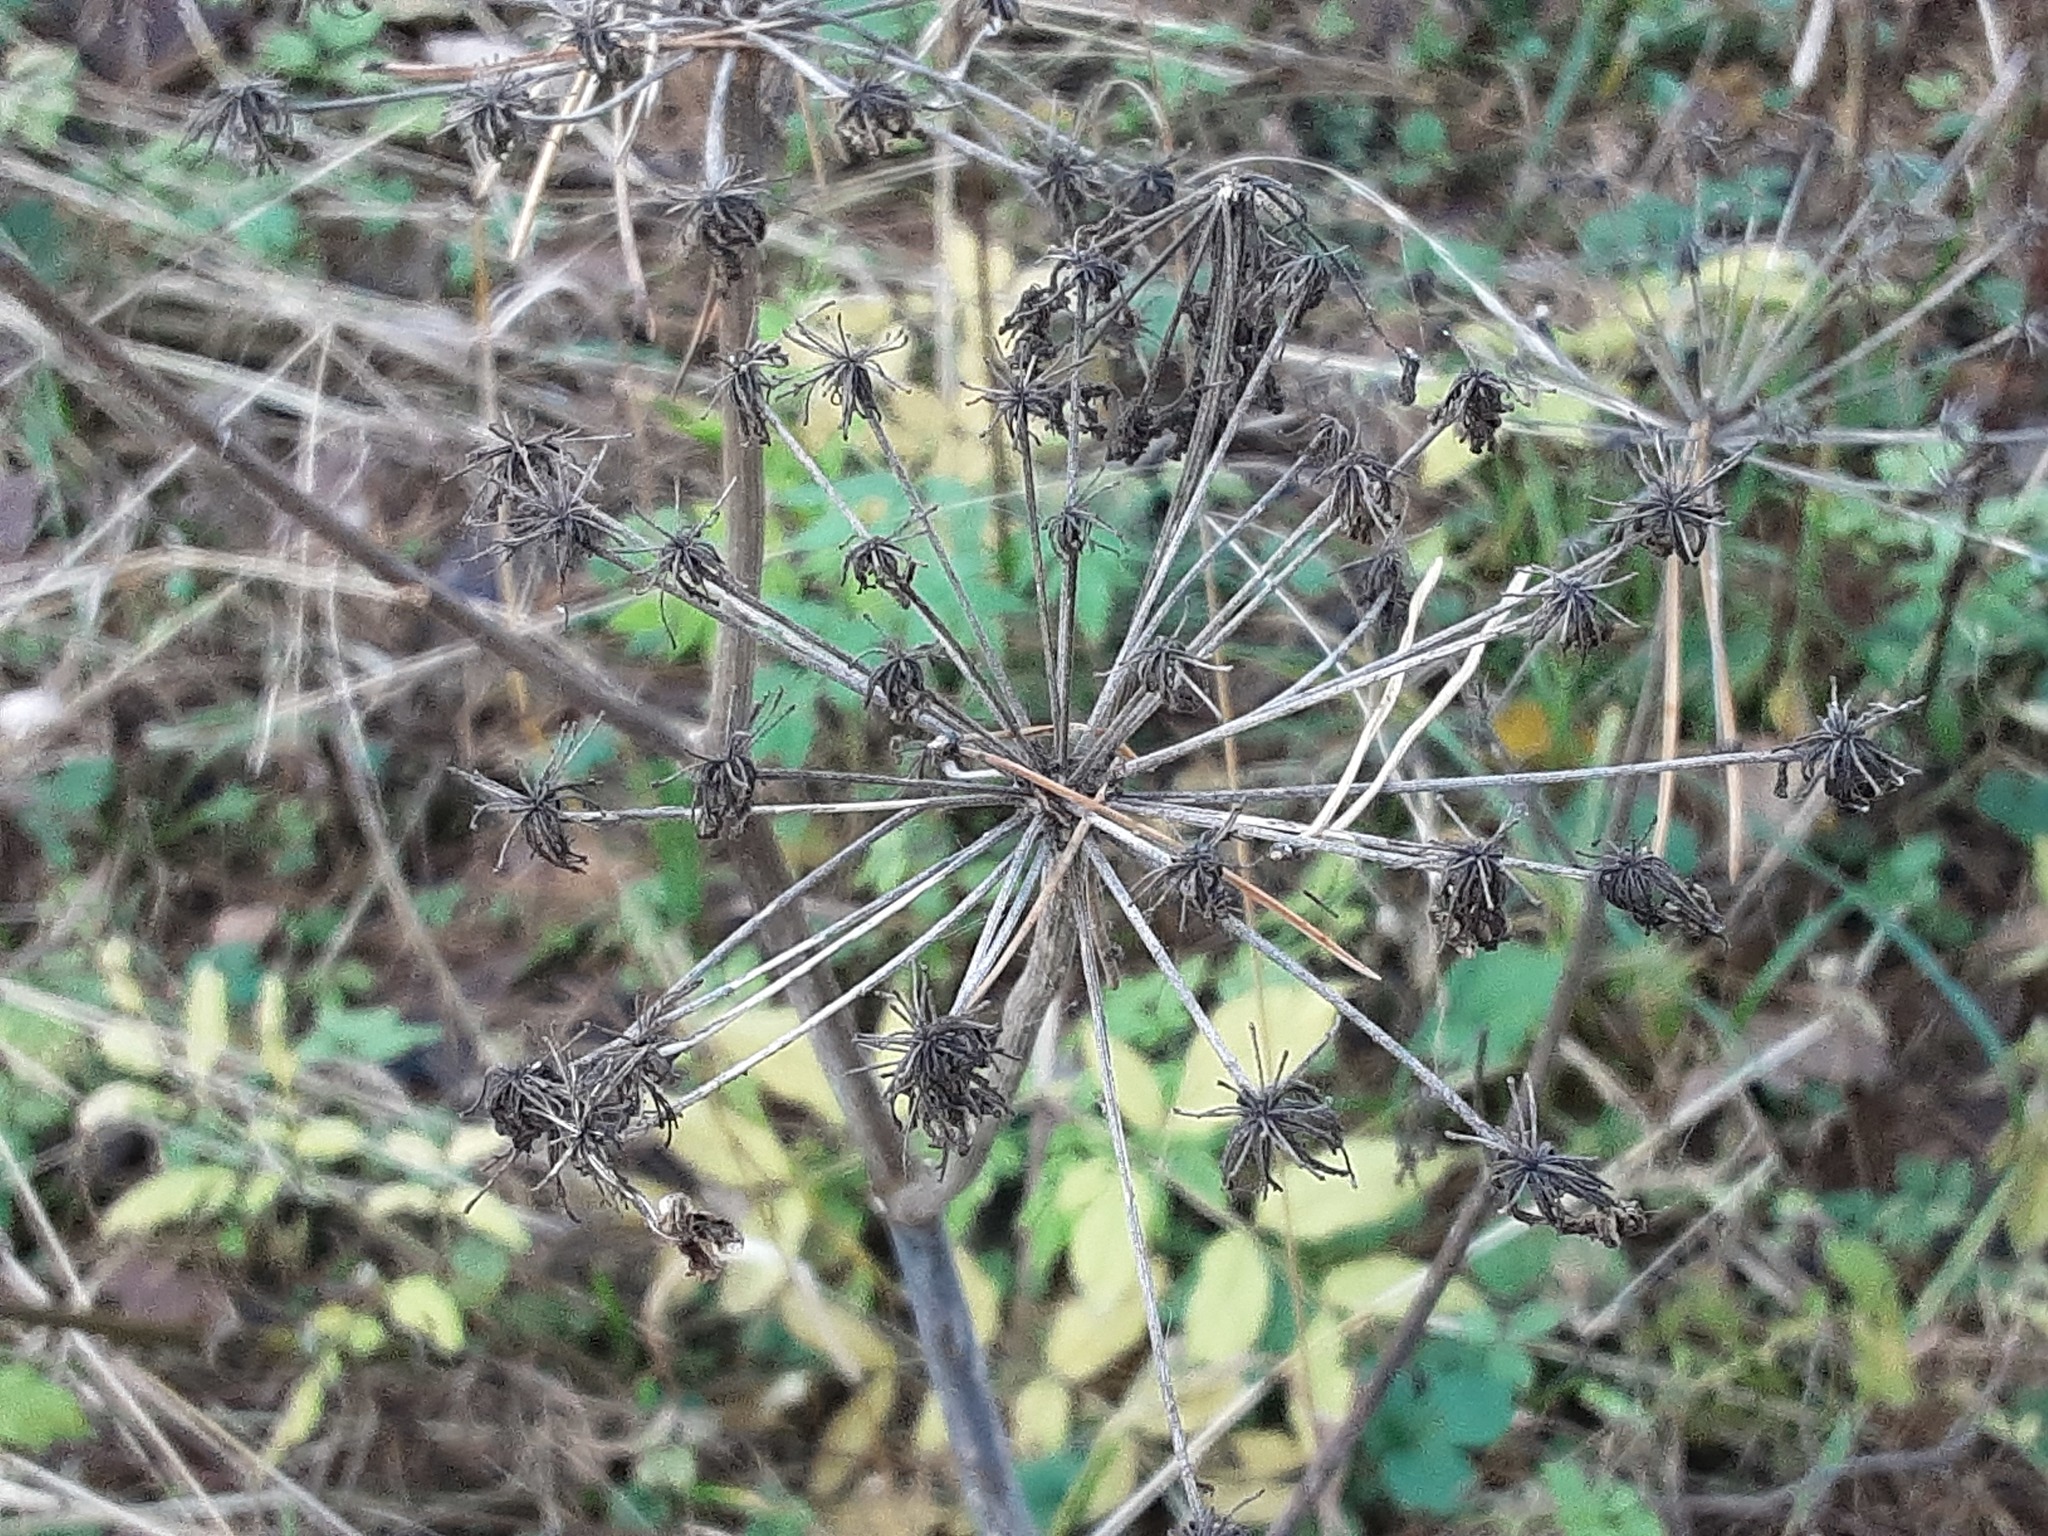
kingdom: Plantae
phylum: Tracheophyta
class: Magnoliopsida
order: Apiales
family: Apiaceae
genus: Angelica
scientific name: Angelica sylvestris
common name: Wild angelica
